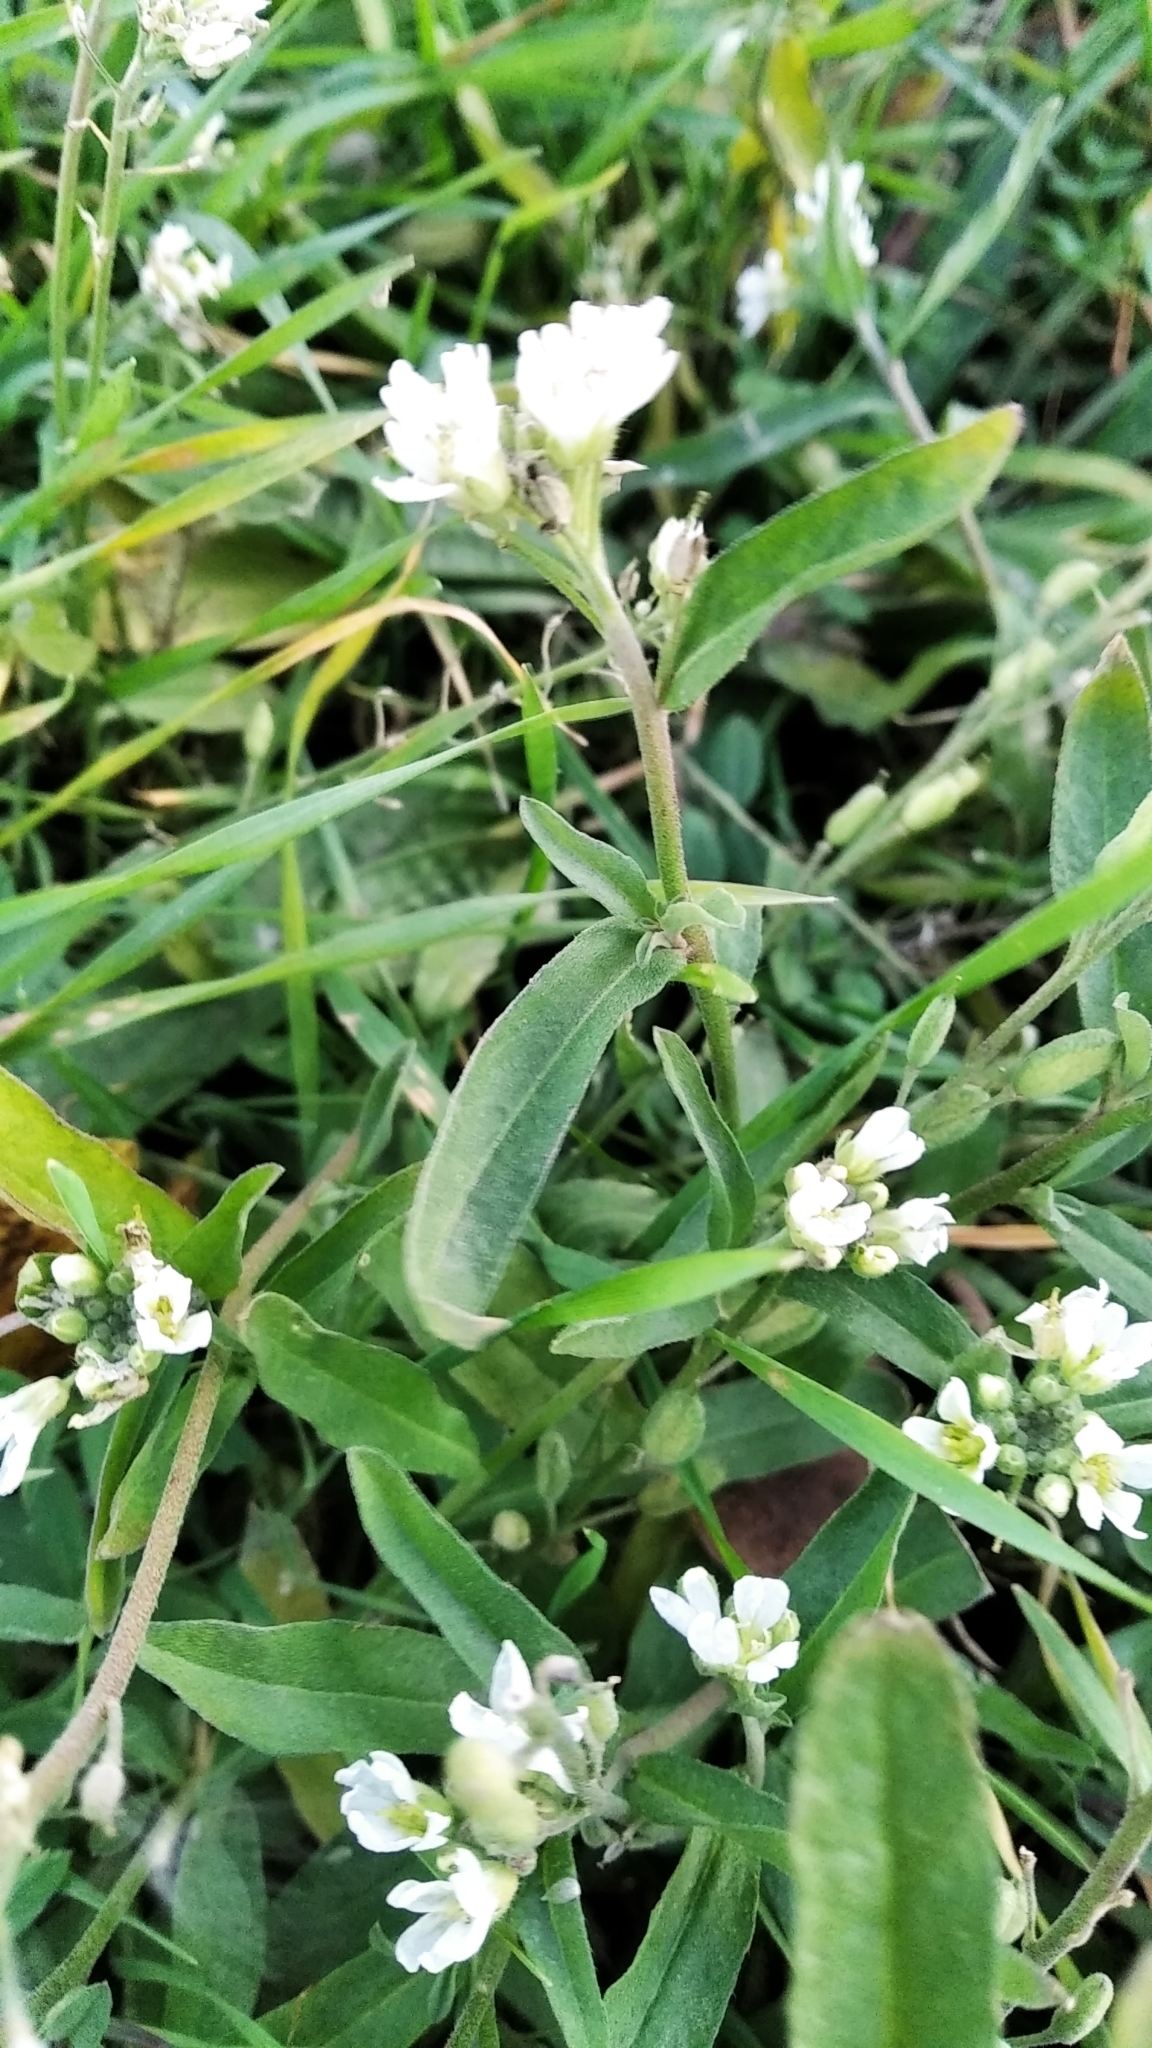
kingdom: Plantae
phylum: Tracheophyta
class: Magnoliopsida
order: Brassicales
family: Brassicaceae
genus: Berteroa
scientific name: Berteroa incana
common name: Hoary alison
